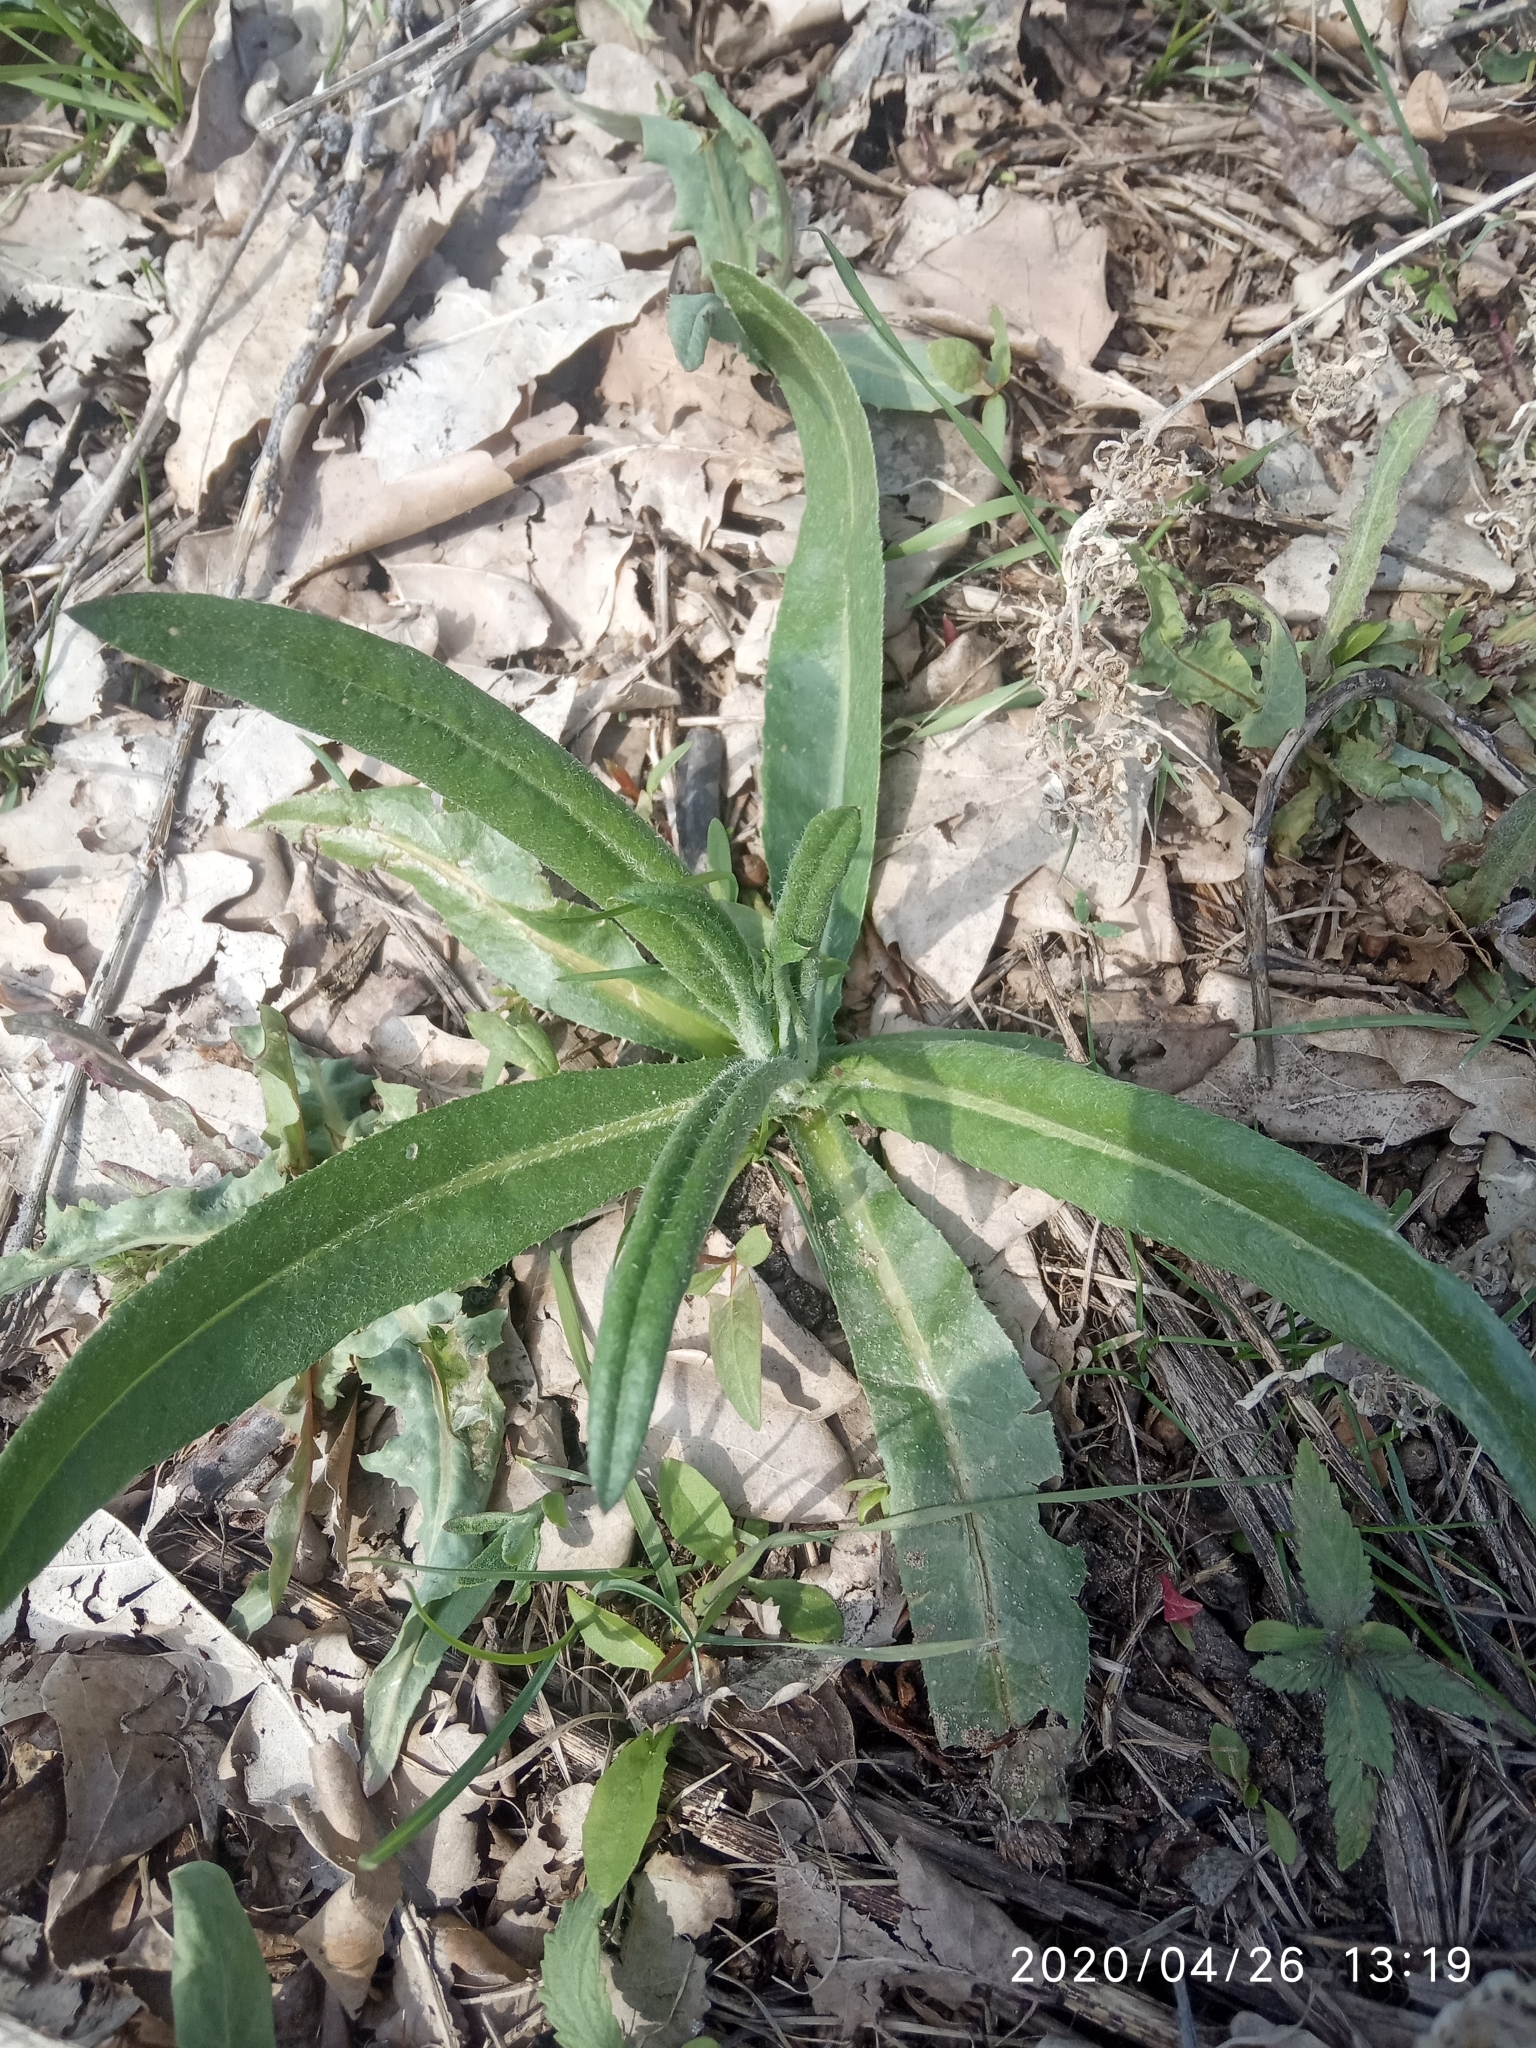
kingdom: Plantae
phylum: Tracheophyta
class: Magnoliopsida
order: Asterales
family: Asteraceae
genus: Cirsium
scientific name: Cirsium arvense
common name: Creeping thistle
